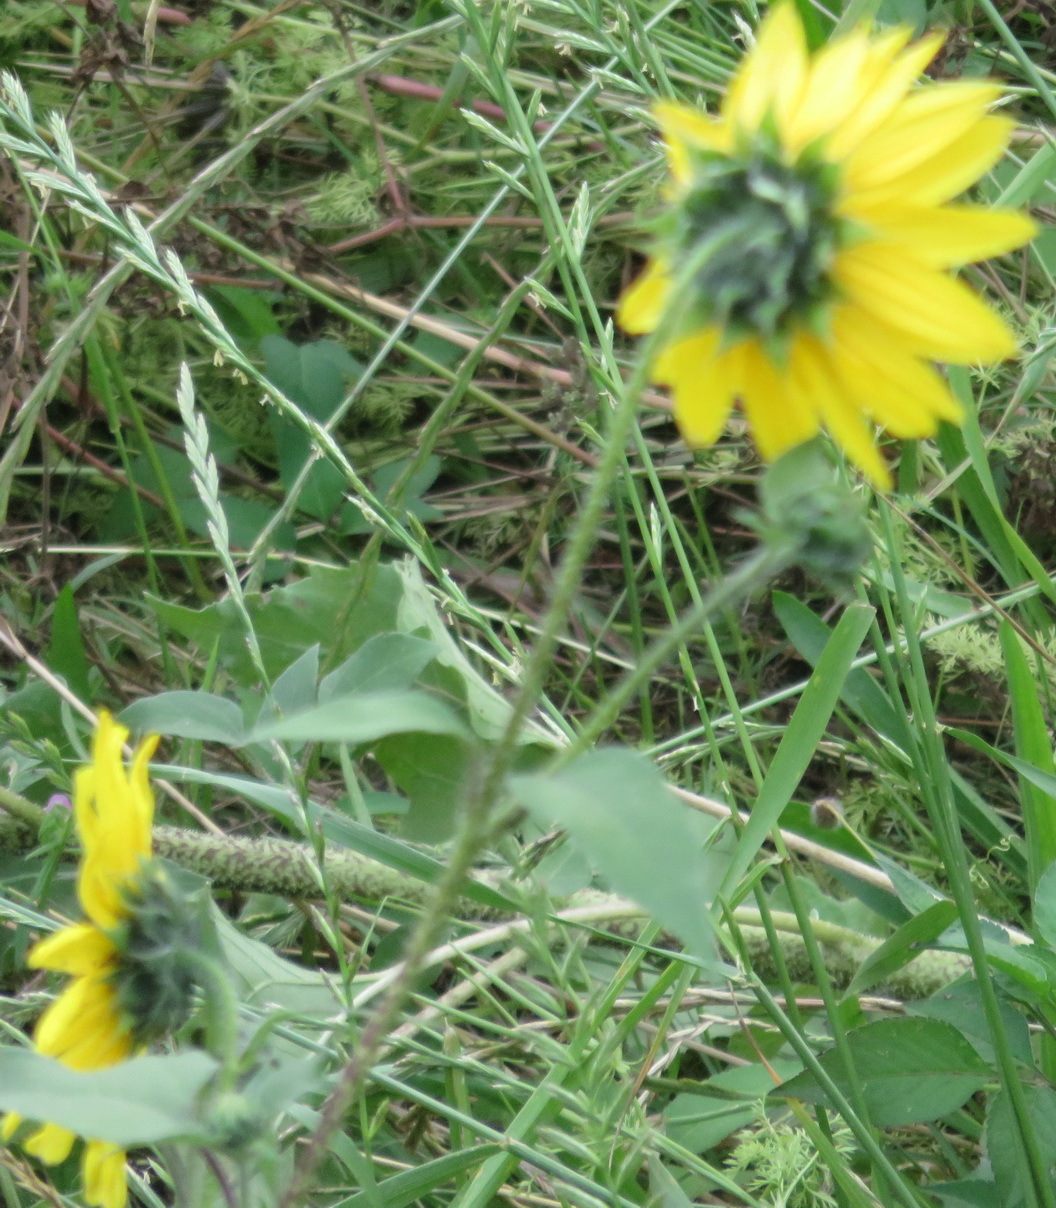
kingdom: Plantae
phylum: Tracheophyta
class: Magnoliopsida
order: Asterales
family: Asteraceae
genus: Helianthus
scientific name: Helianthus annuus
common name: Sunflower
